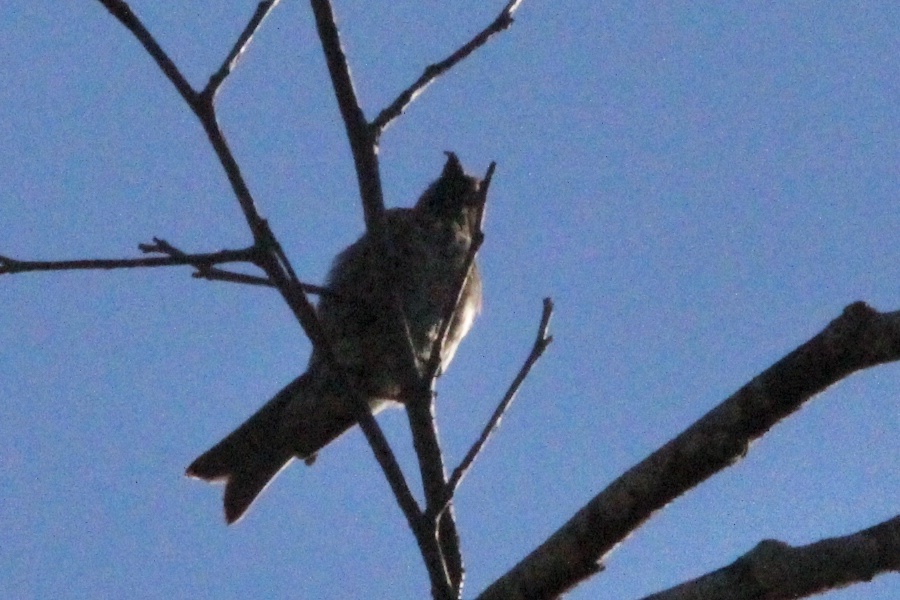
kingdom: Animalia
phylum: Chordata
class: Aves
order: Passeriformes
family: Fringillidae
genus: Loxia
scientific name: Loxia curvirostra
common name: Red crossbill
